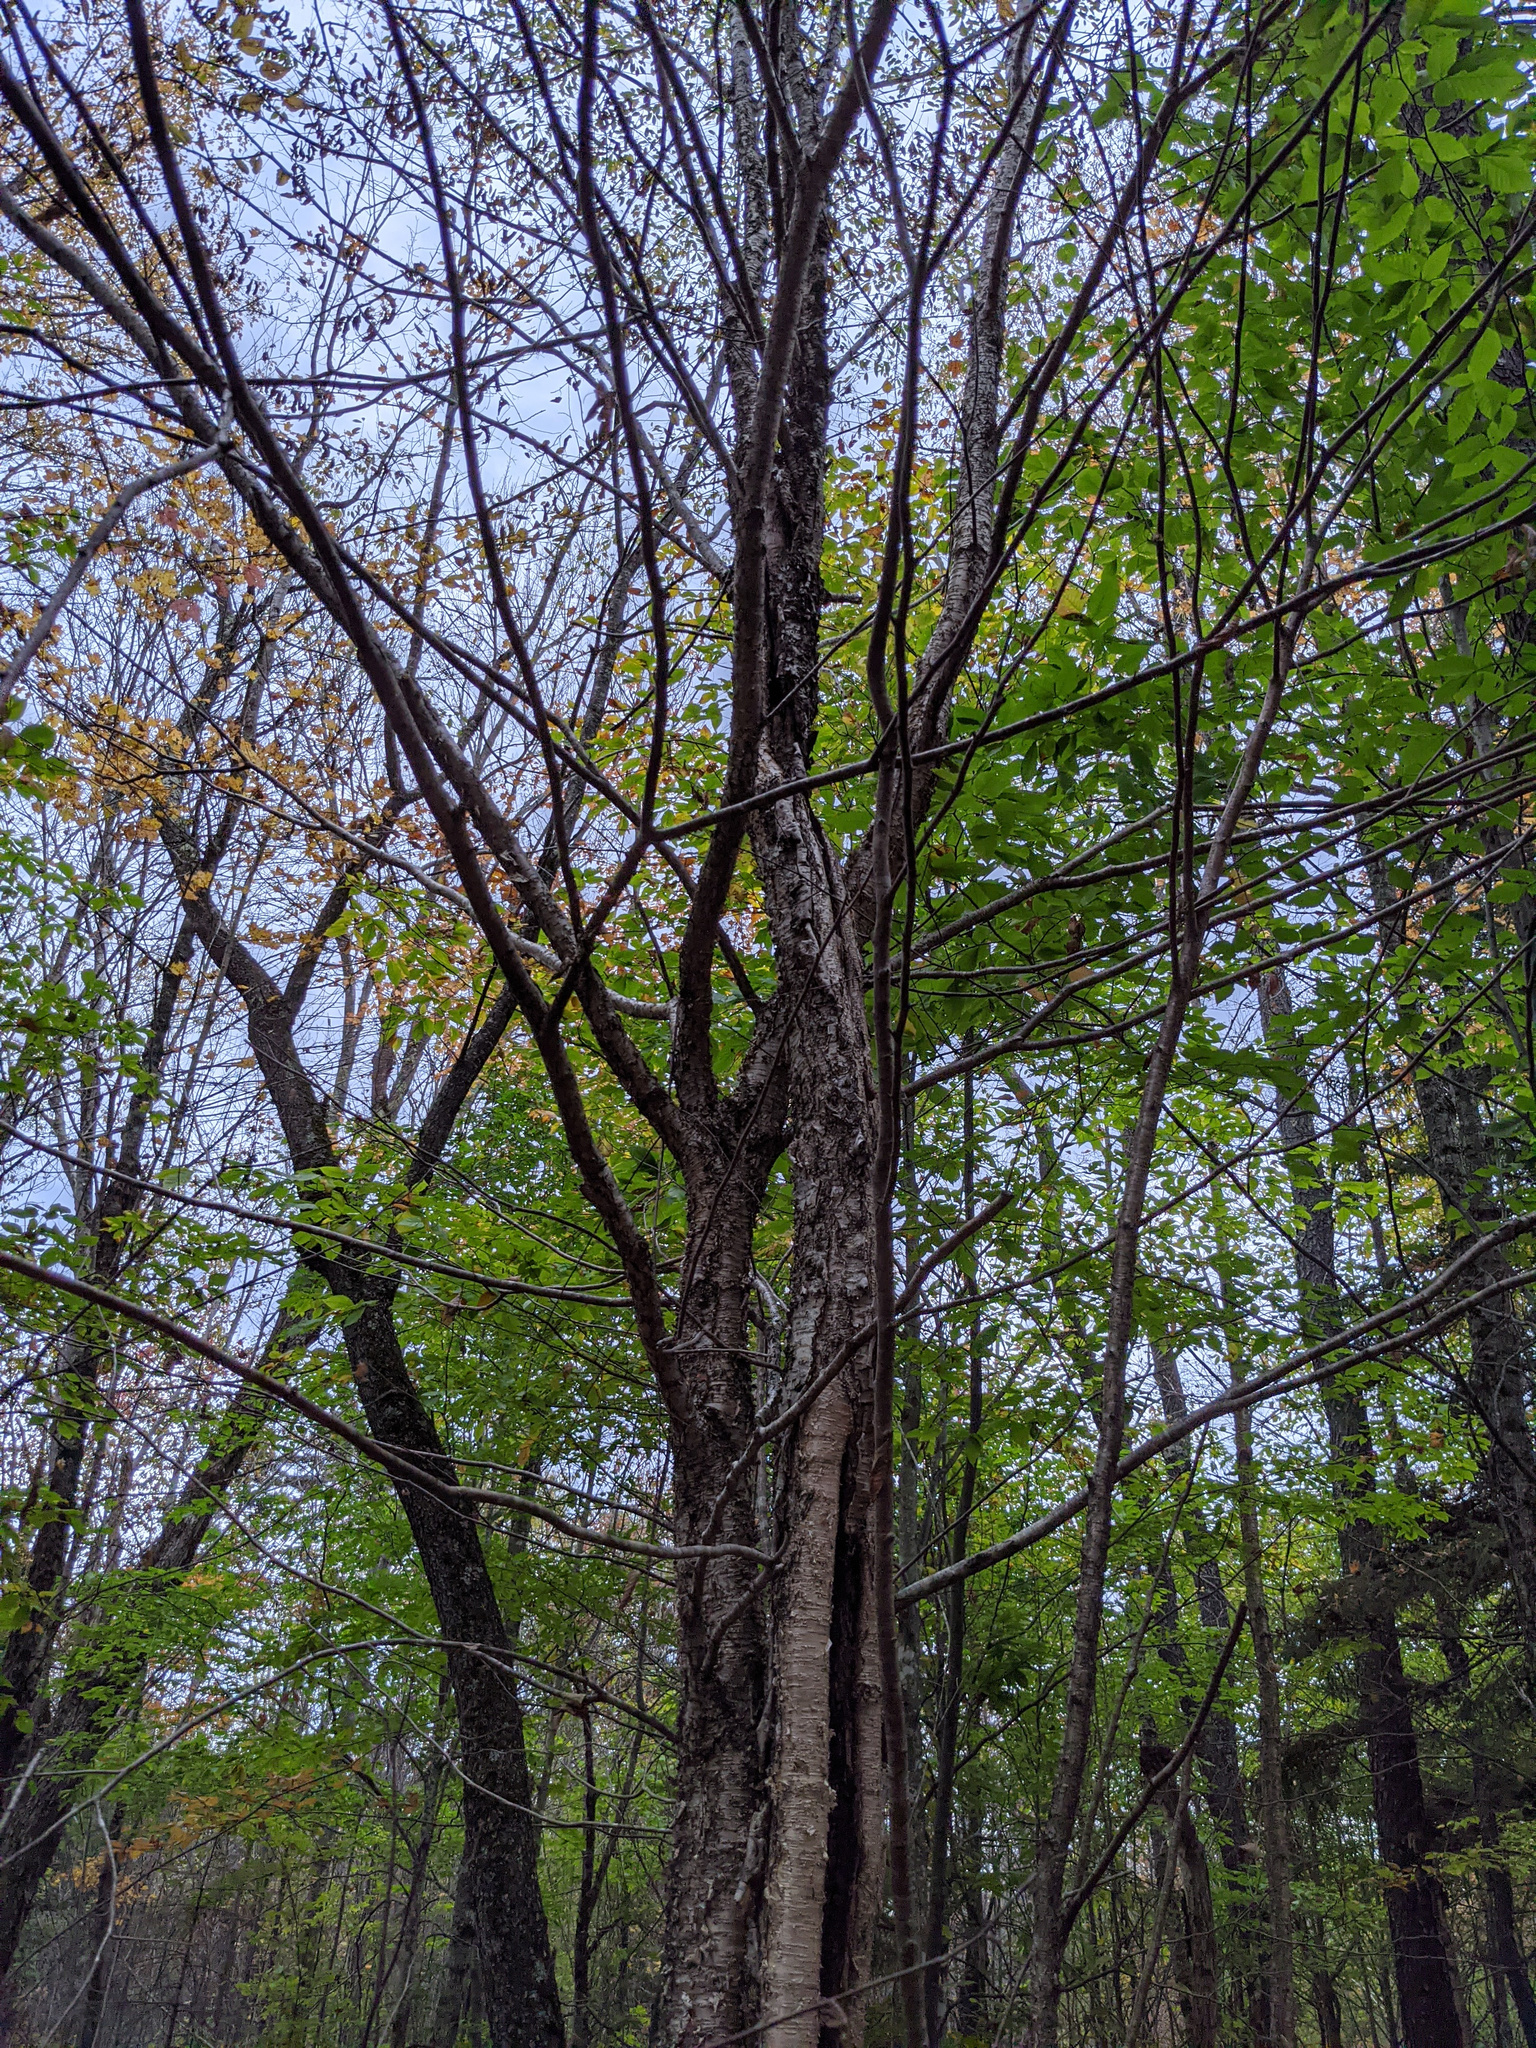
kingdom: Plantae
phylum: Tracheophyta
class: Magnoliopsida
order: Fagales
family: Betulaceae
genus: Betula
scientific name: Betula alleghaniensis
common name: Yellow birch
